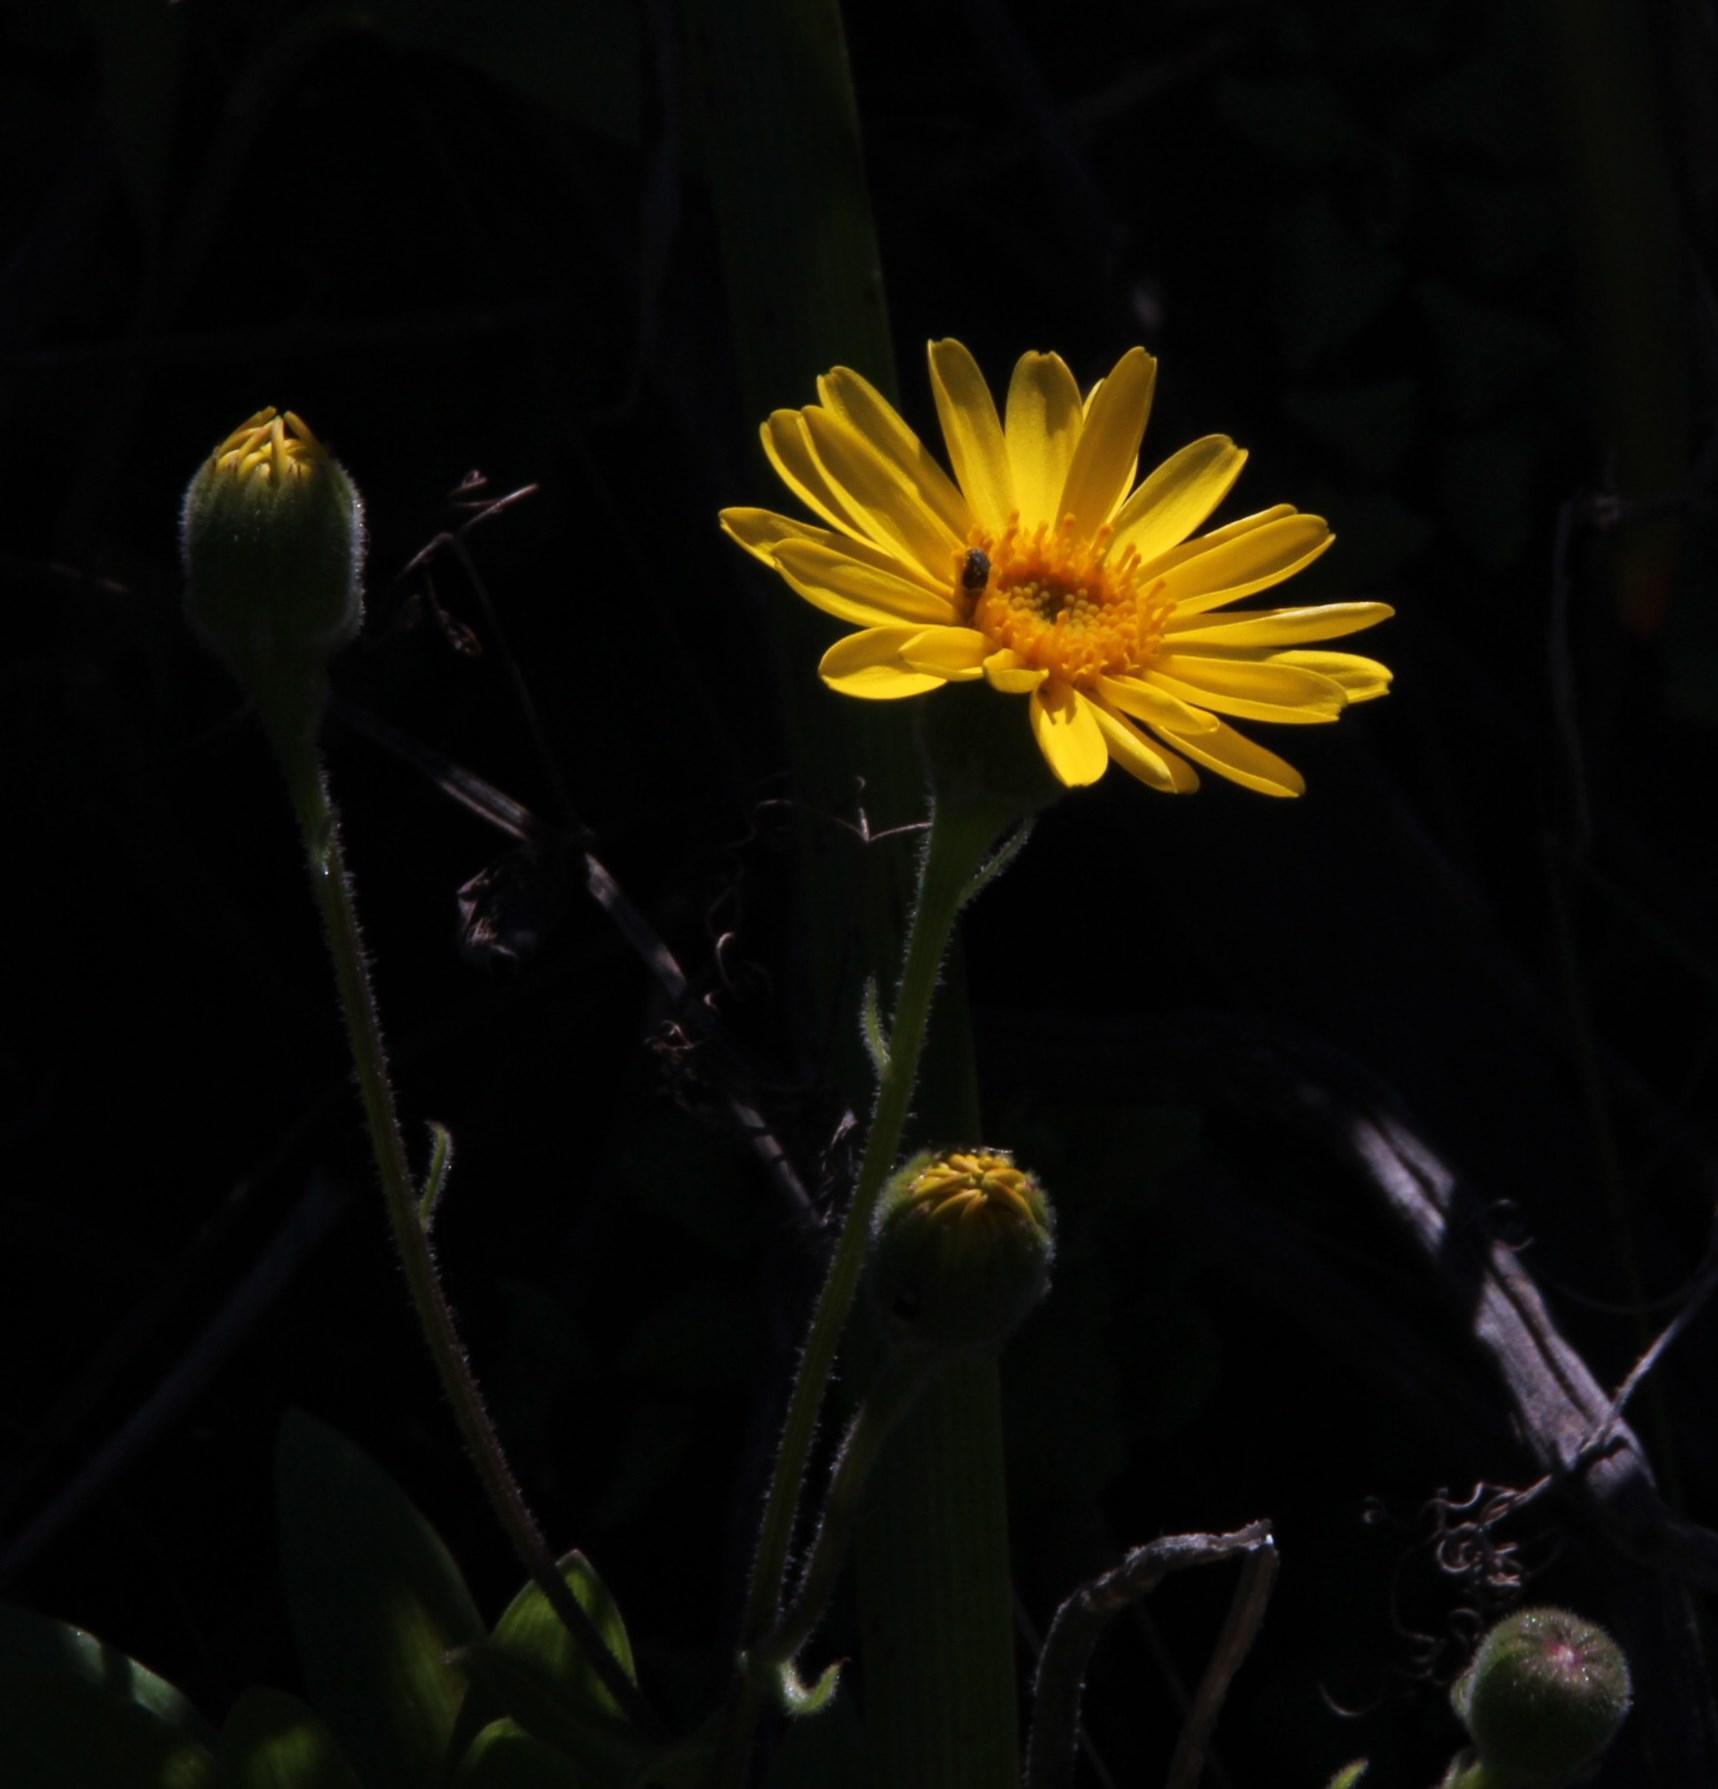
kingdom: Plantae
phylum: Tracheophyta
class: Magnoliopsida
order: Asterales
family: Asteraceae
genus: Senecio
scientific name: Senecio planiflorus
